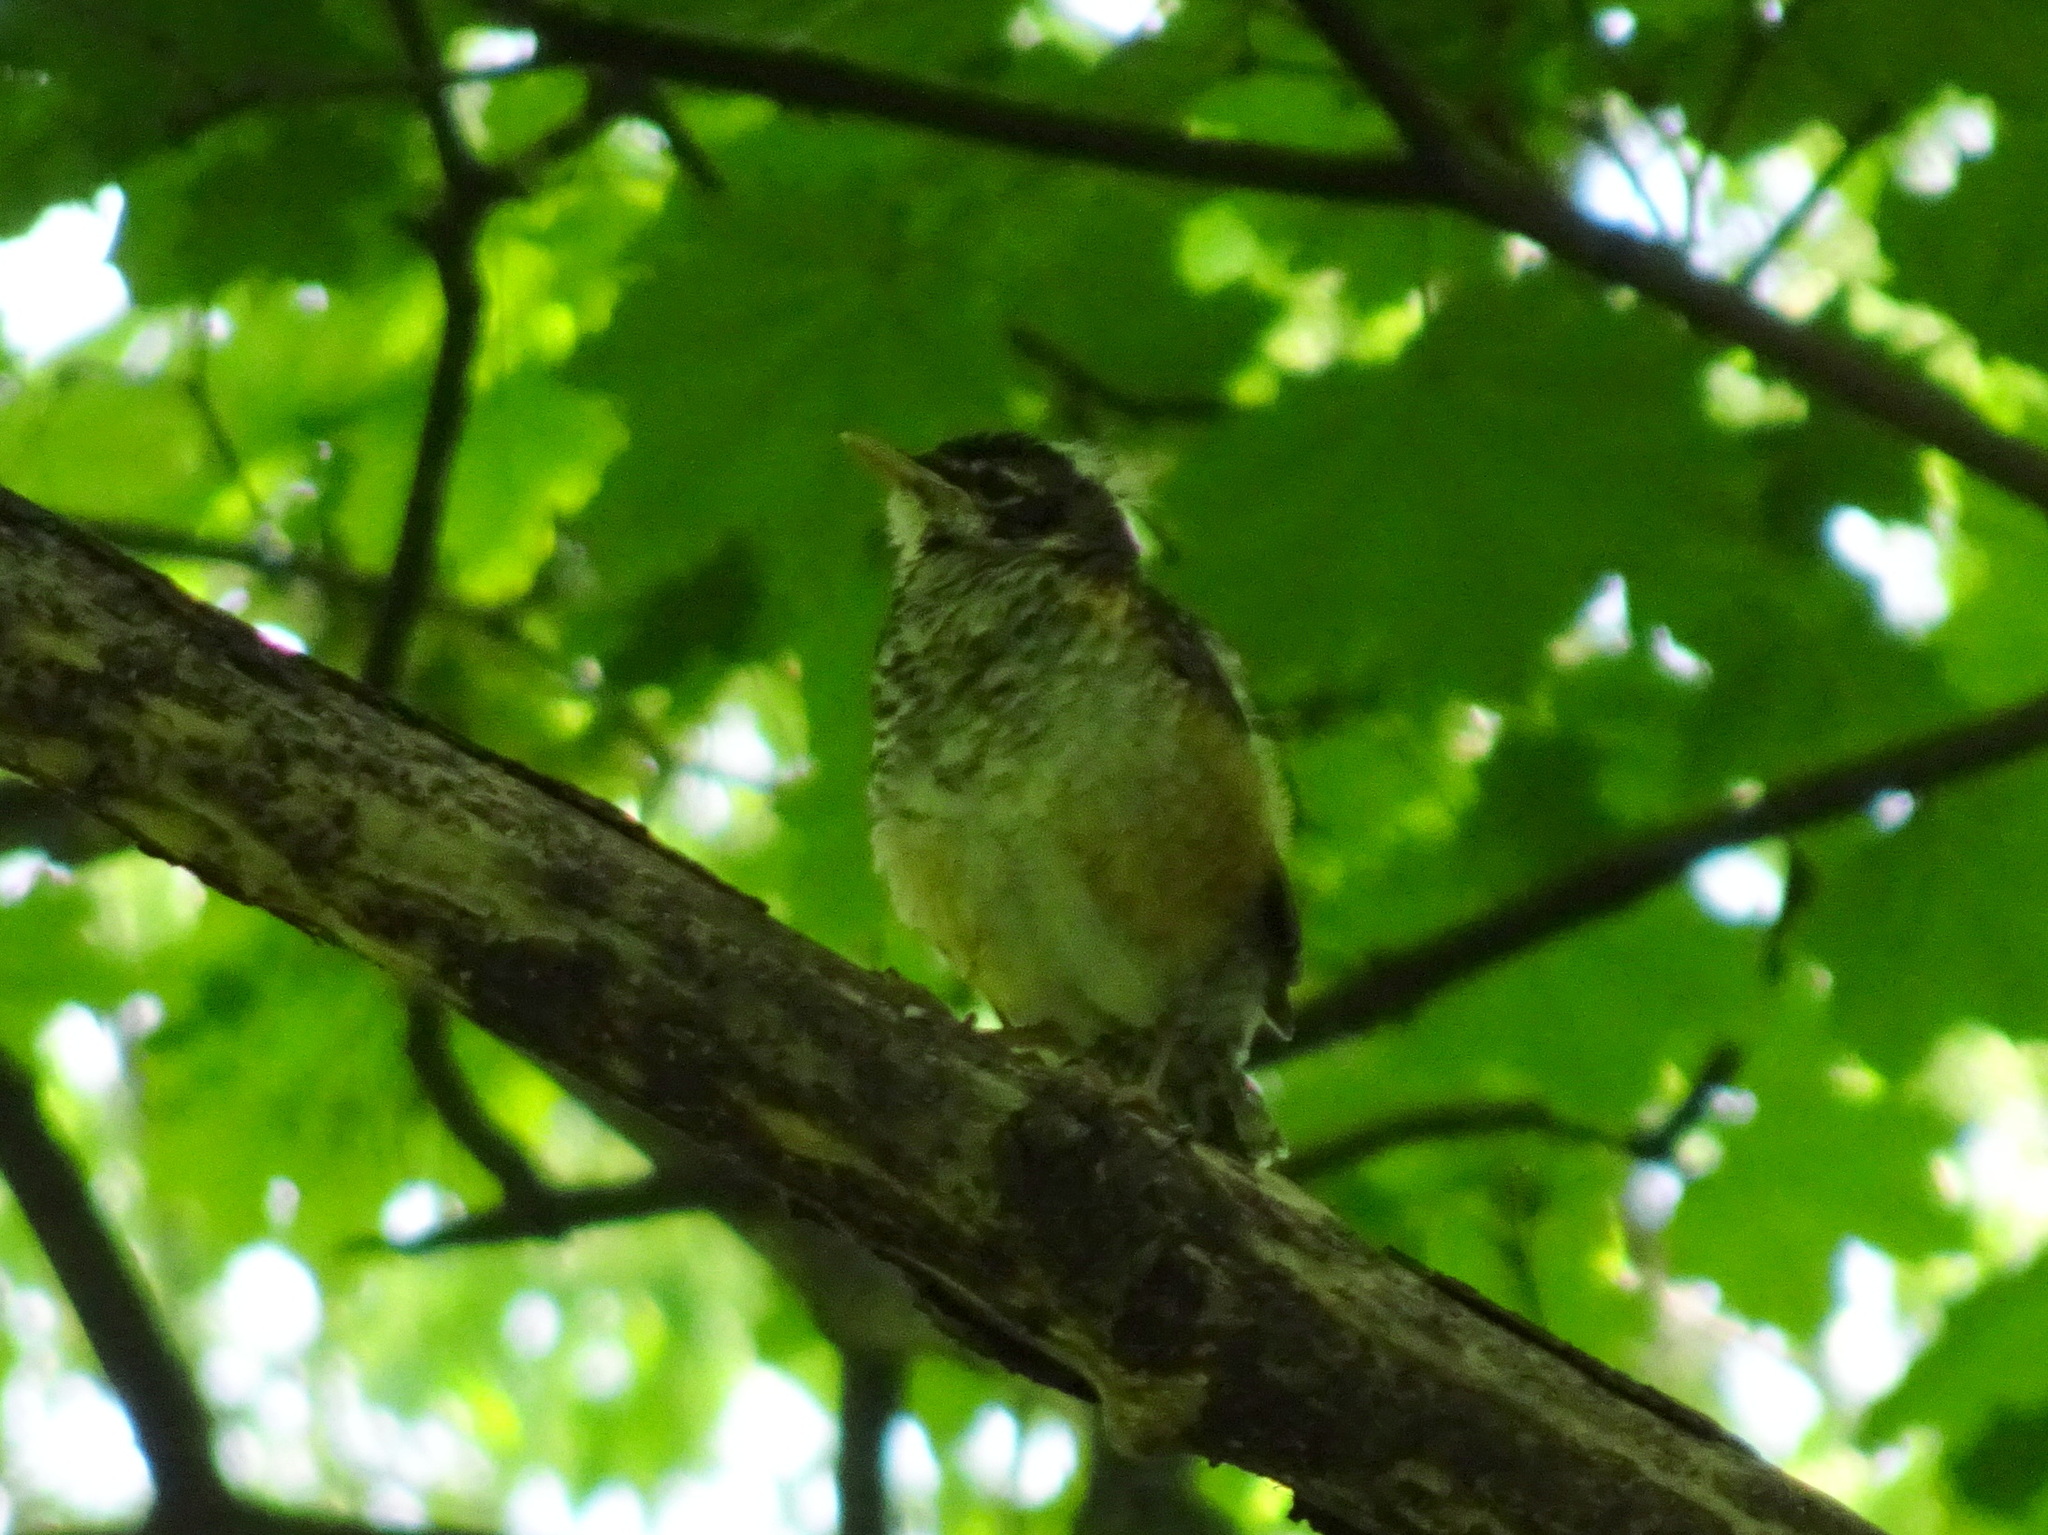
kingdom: Animalia
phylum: Chordata
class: Aves
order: Passeriformes
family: Turdidae
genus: Turdus
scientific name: Turdus migratorius
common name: American robin
